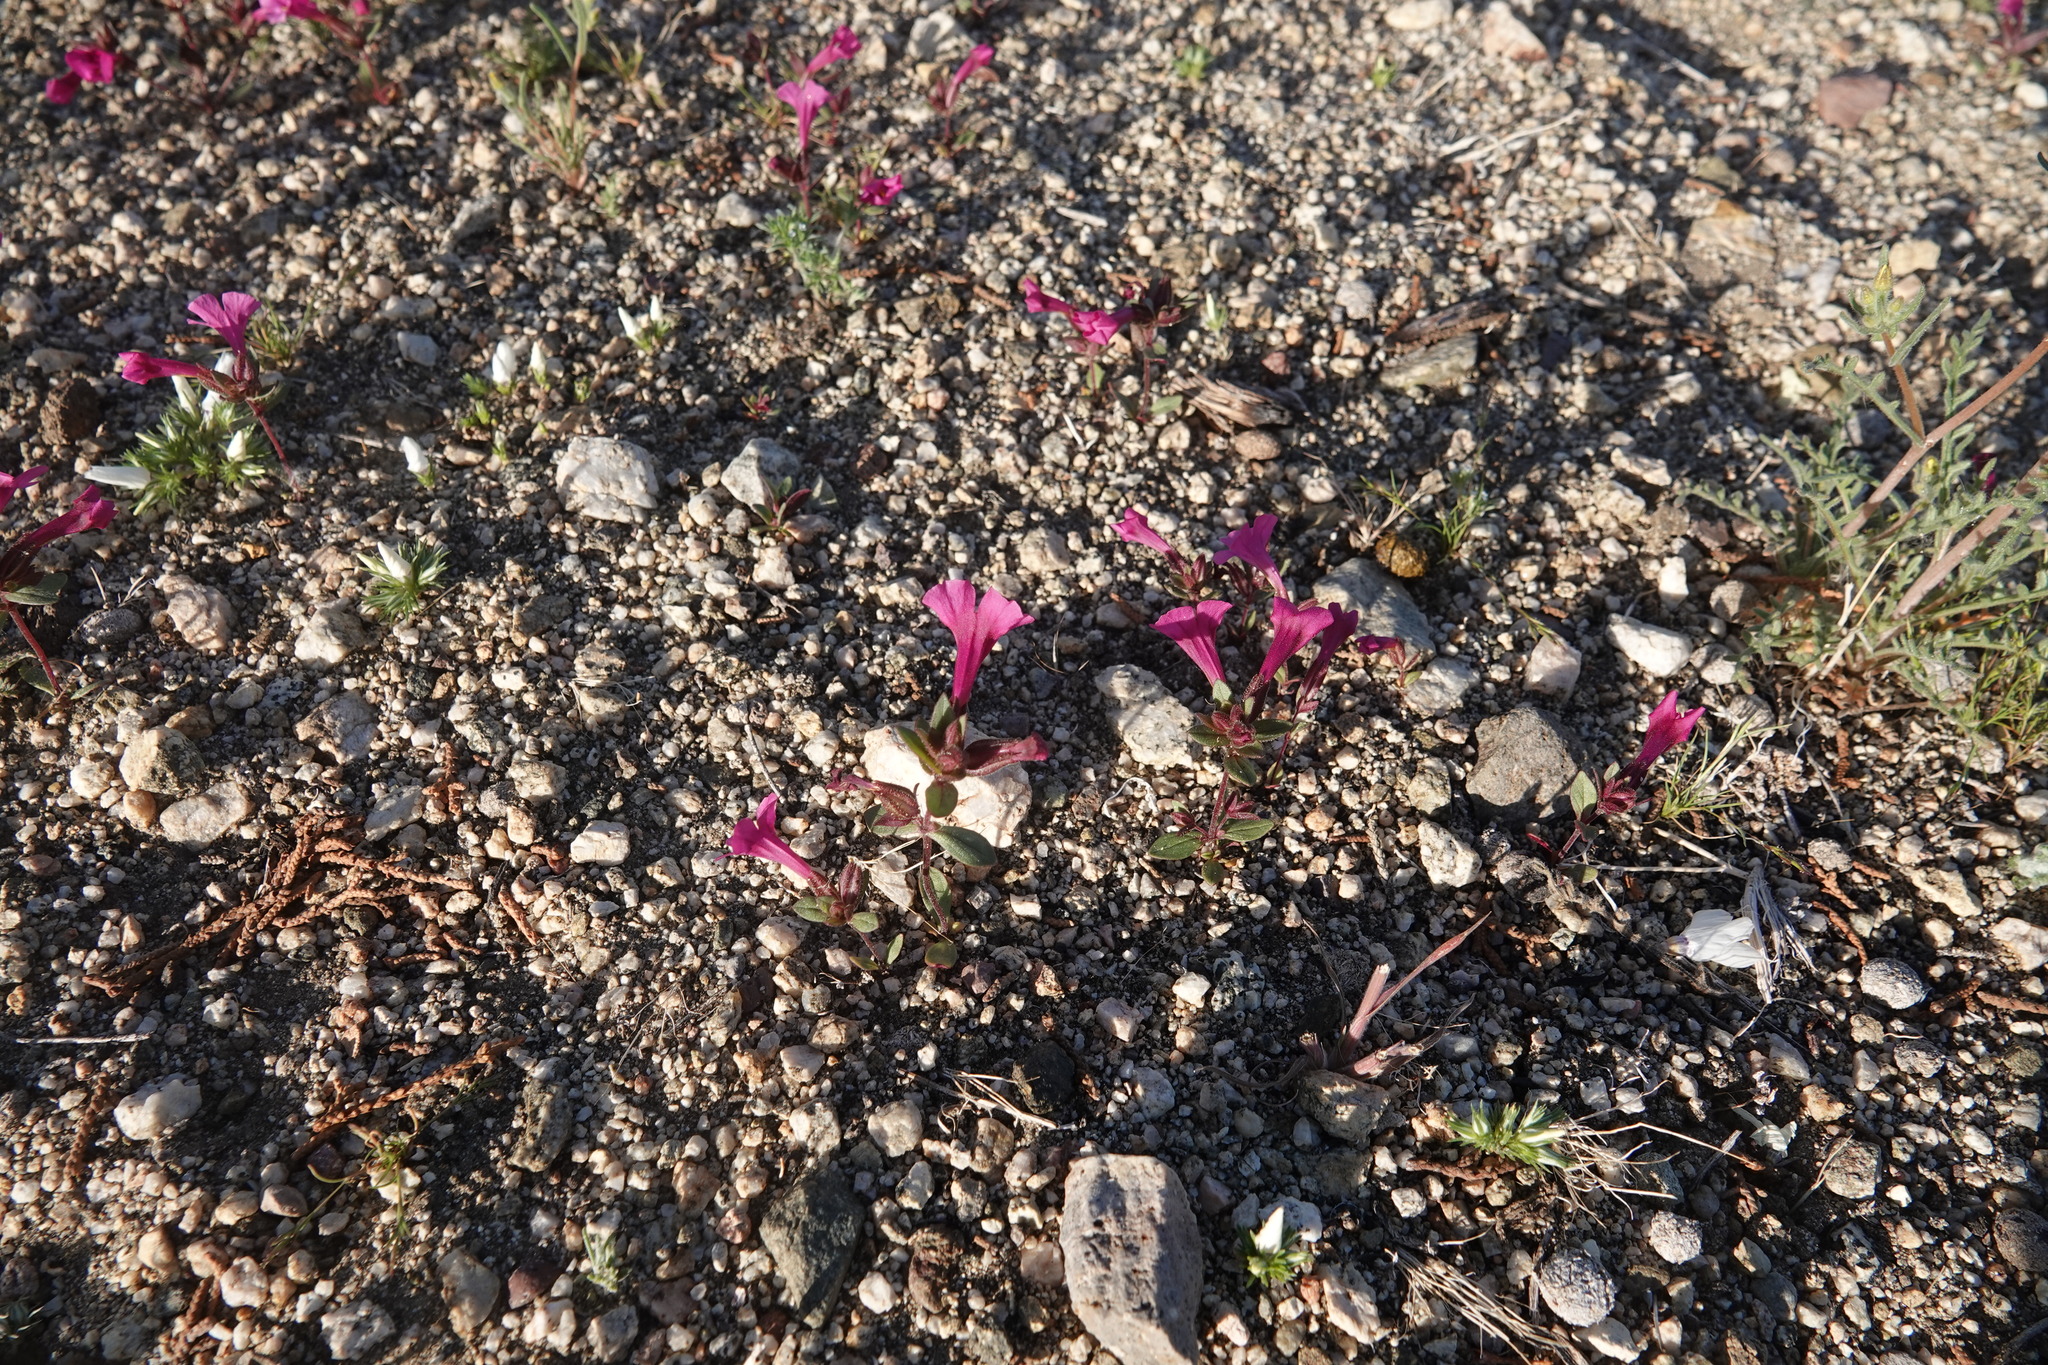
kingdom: Plantae
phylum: Tracheophyta
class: Magnoliopsida
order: Lamiales
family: Phrymaceae
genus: Diplacus
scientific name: Diplacus bigelovii
